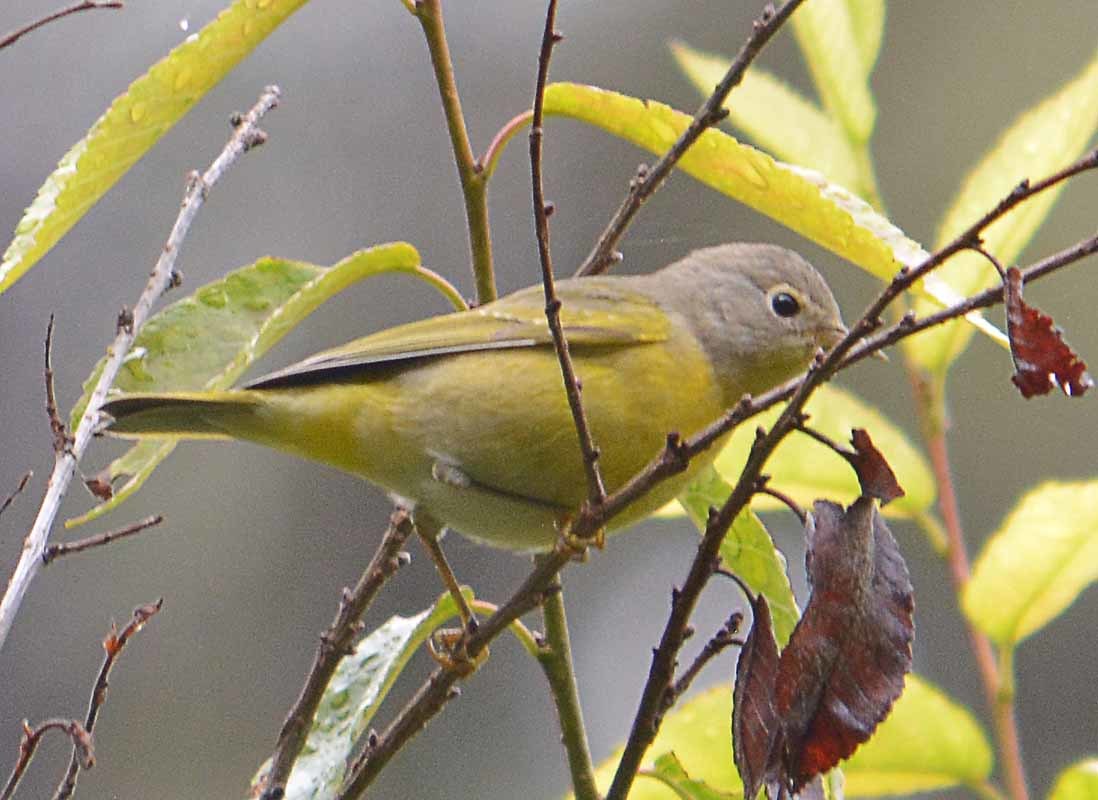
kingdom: Animalia
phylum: Chordata
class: Aves
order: Passeriformes
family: Parulidae
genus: Leiothlypis
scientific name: Leiothlypis ruficapilla
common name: Nashville warbler
